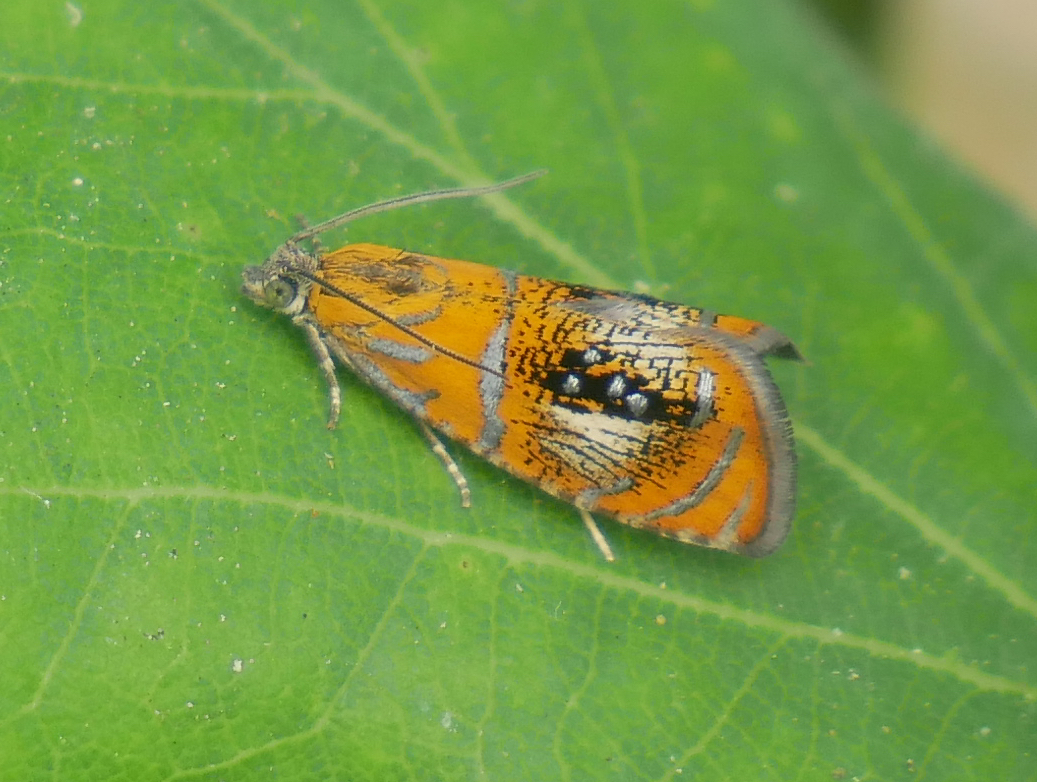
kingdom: Animalia
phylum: Arthropoda
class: Insecta
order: Lepidoptera
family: Tortricidae
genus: Olethreutes
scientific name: Olethreutes arcuella
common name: Arched marble
